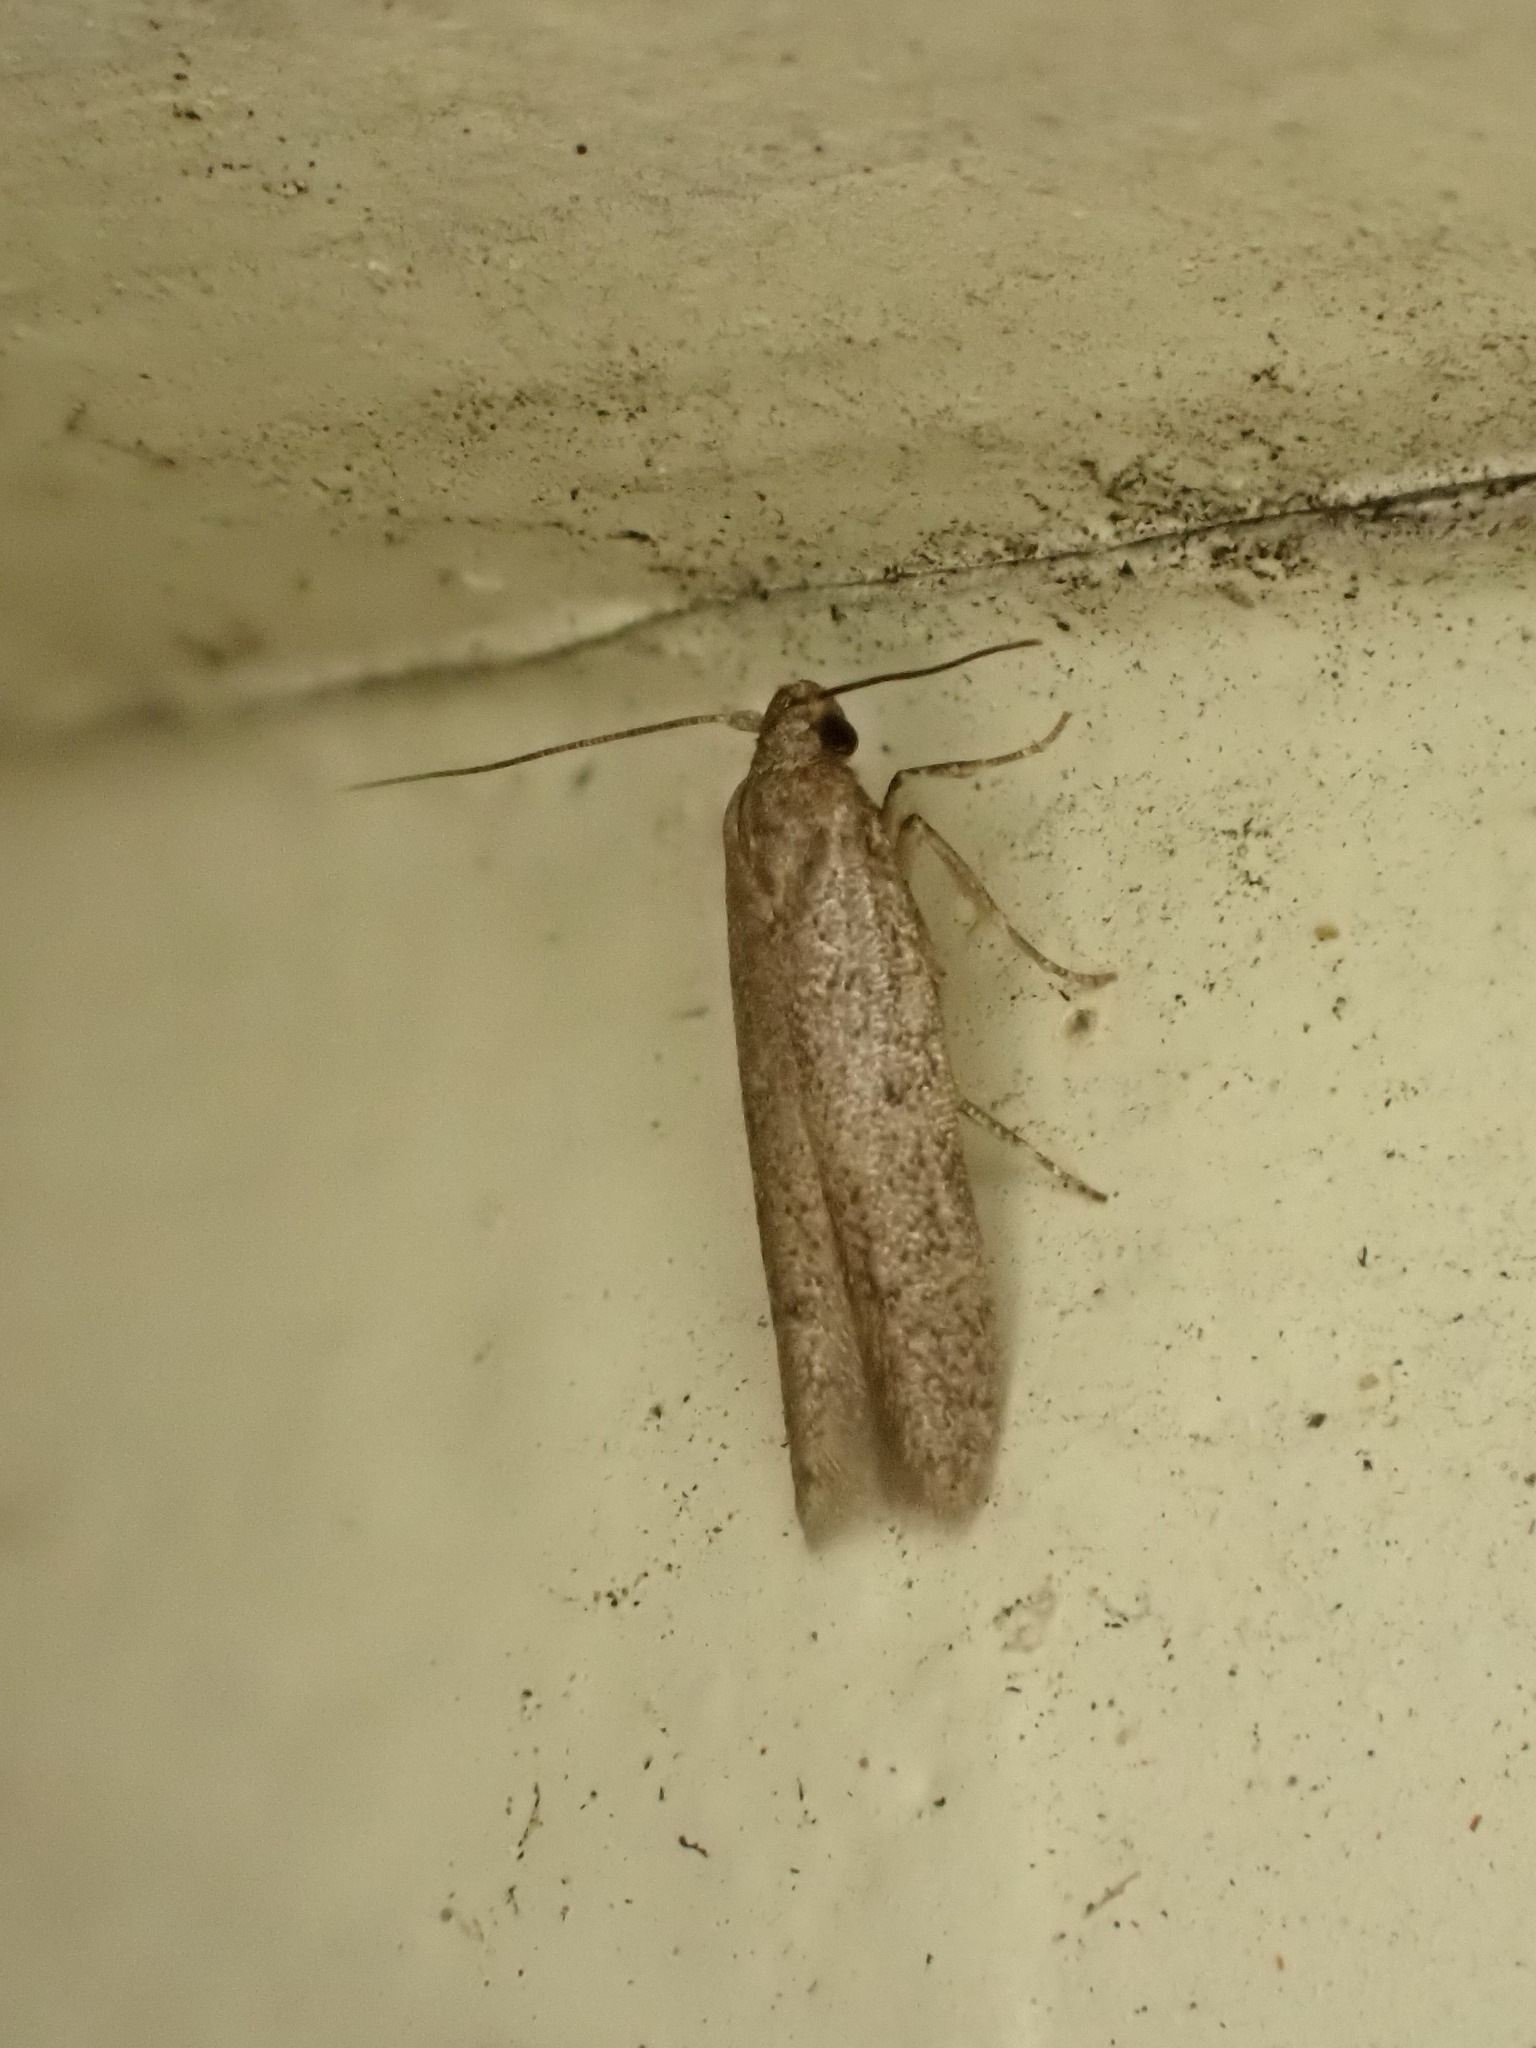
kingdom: Animalia
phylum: Arthropoda
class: Insecta
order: Lepidoptera
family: Blastobasidae
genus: Blastobasis
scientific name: Blastobasis tarda
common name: Blastobasid moth
